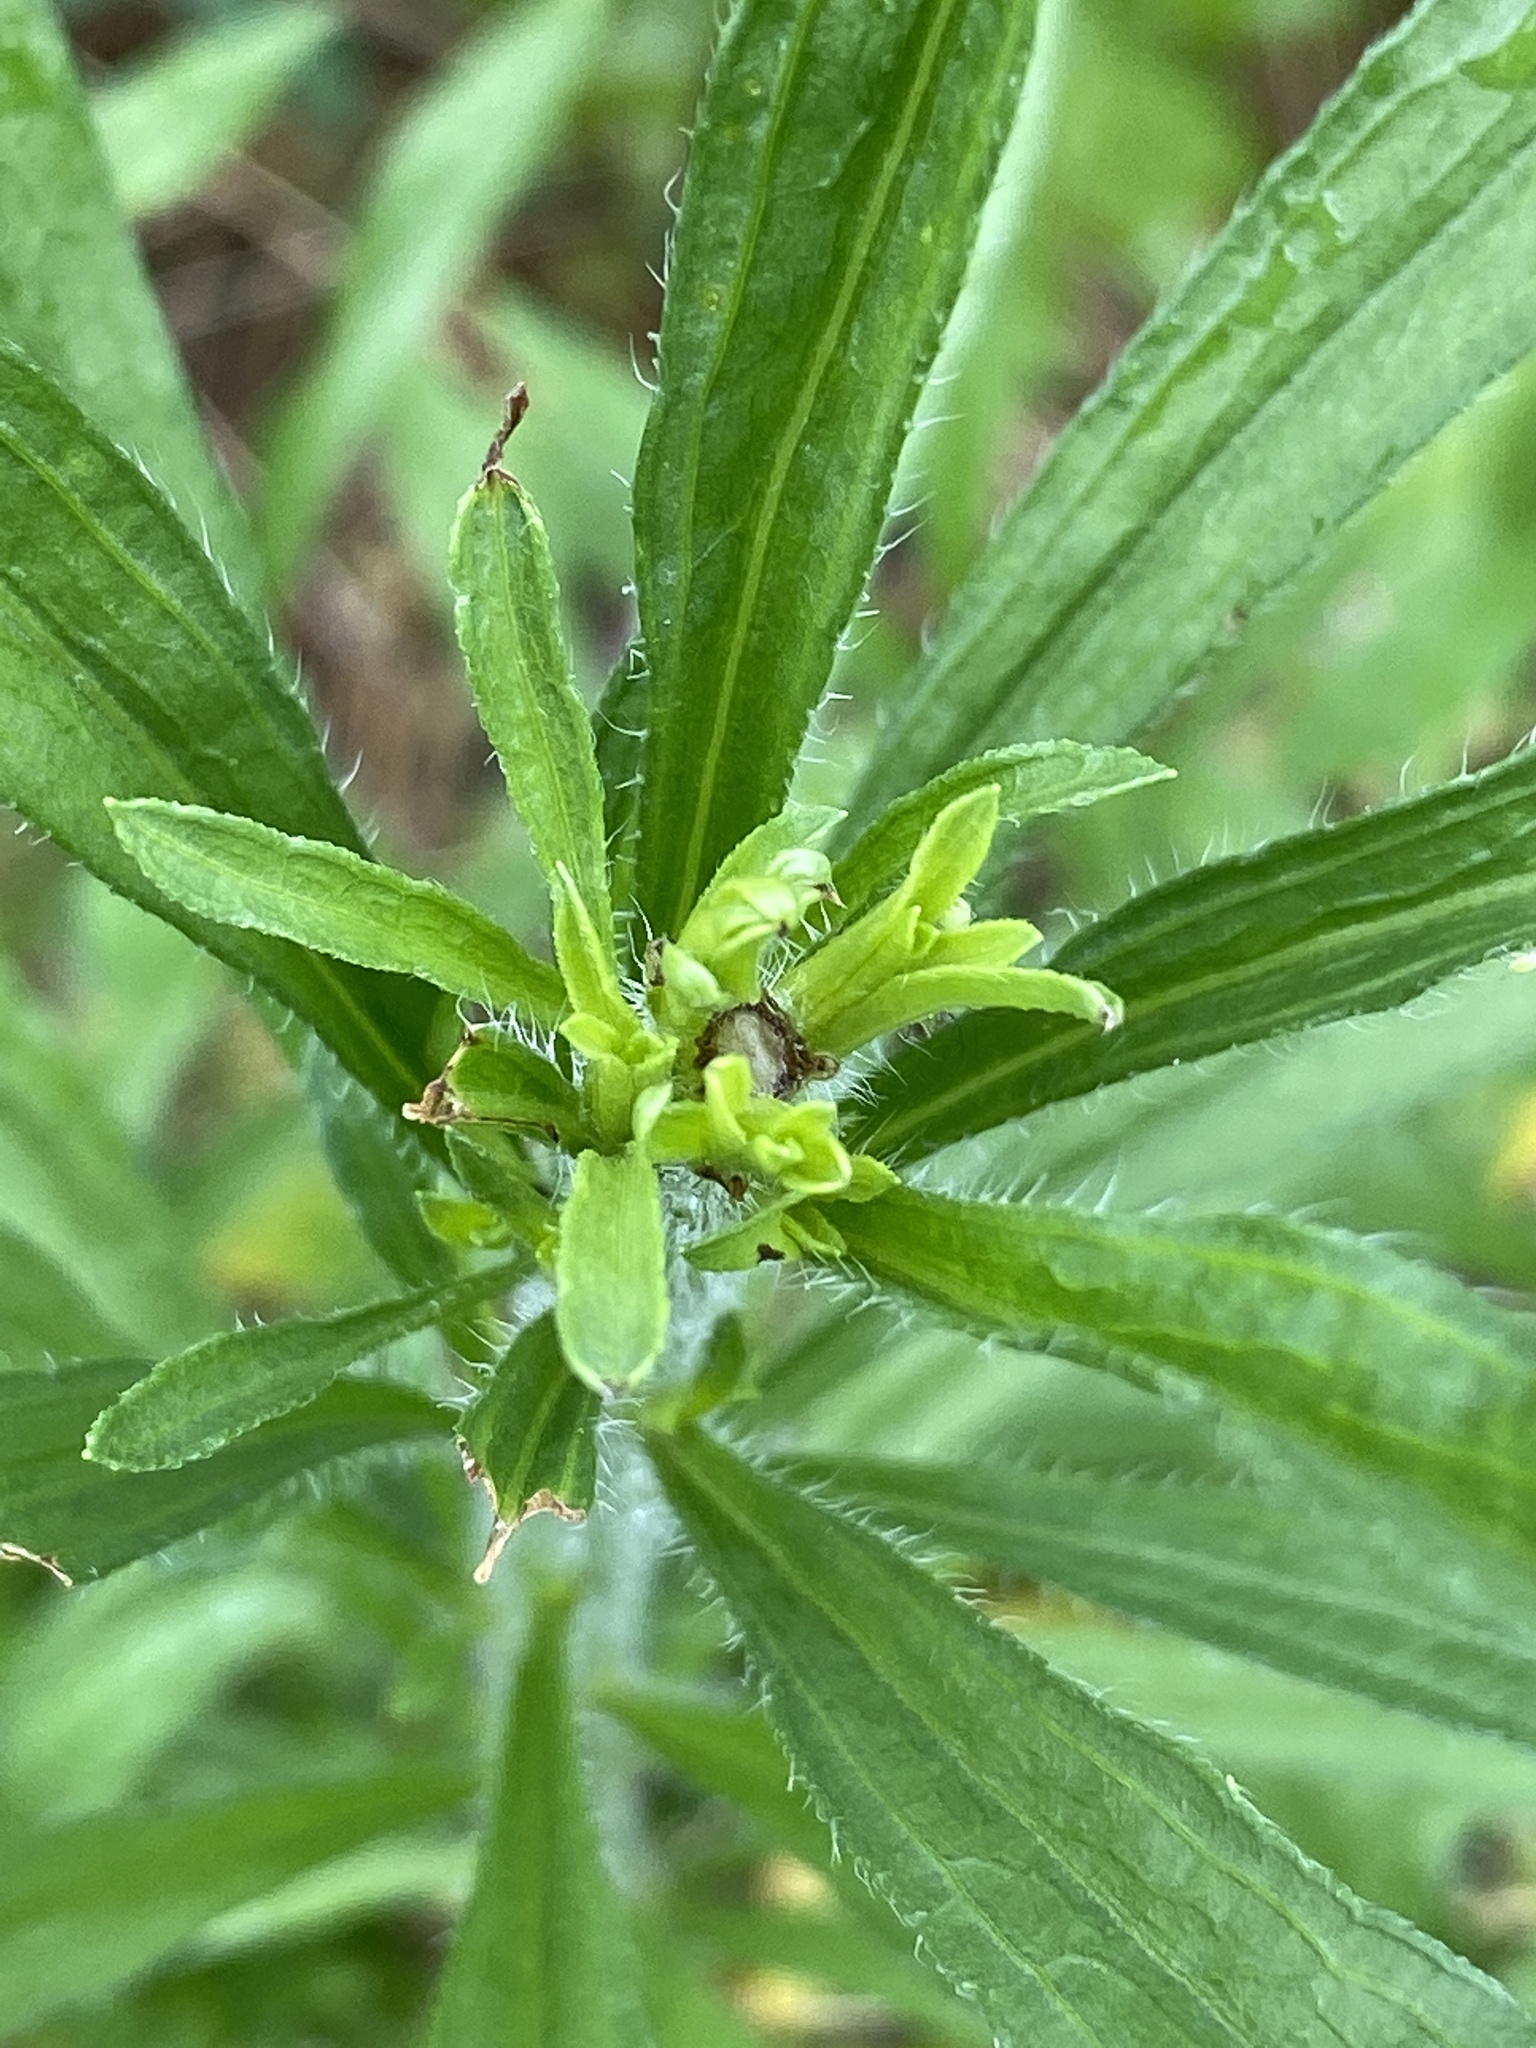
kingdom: Plantae
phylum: Tracheophyta
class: Magnoliopsida
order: Asterales
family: Asteraceae
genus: Erigeron
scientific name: Erigeron canadensis
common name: Canadian fleabane
